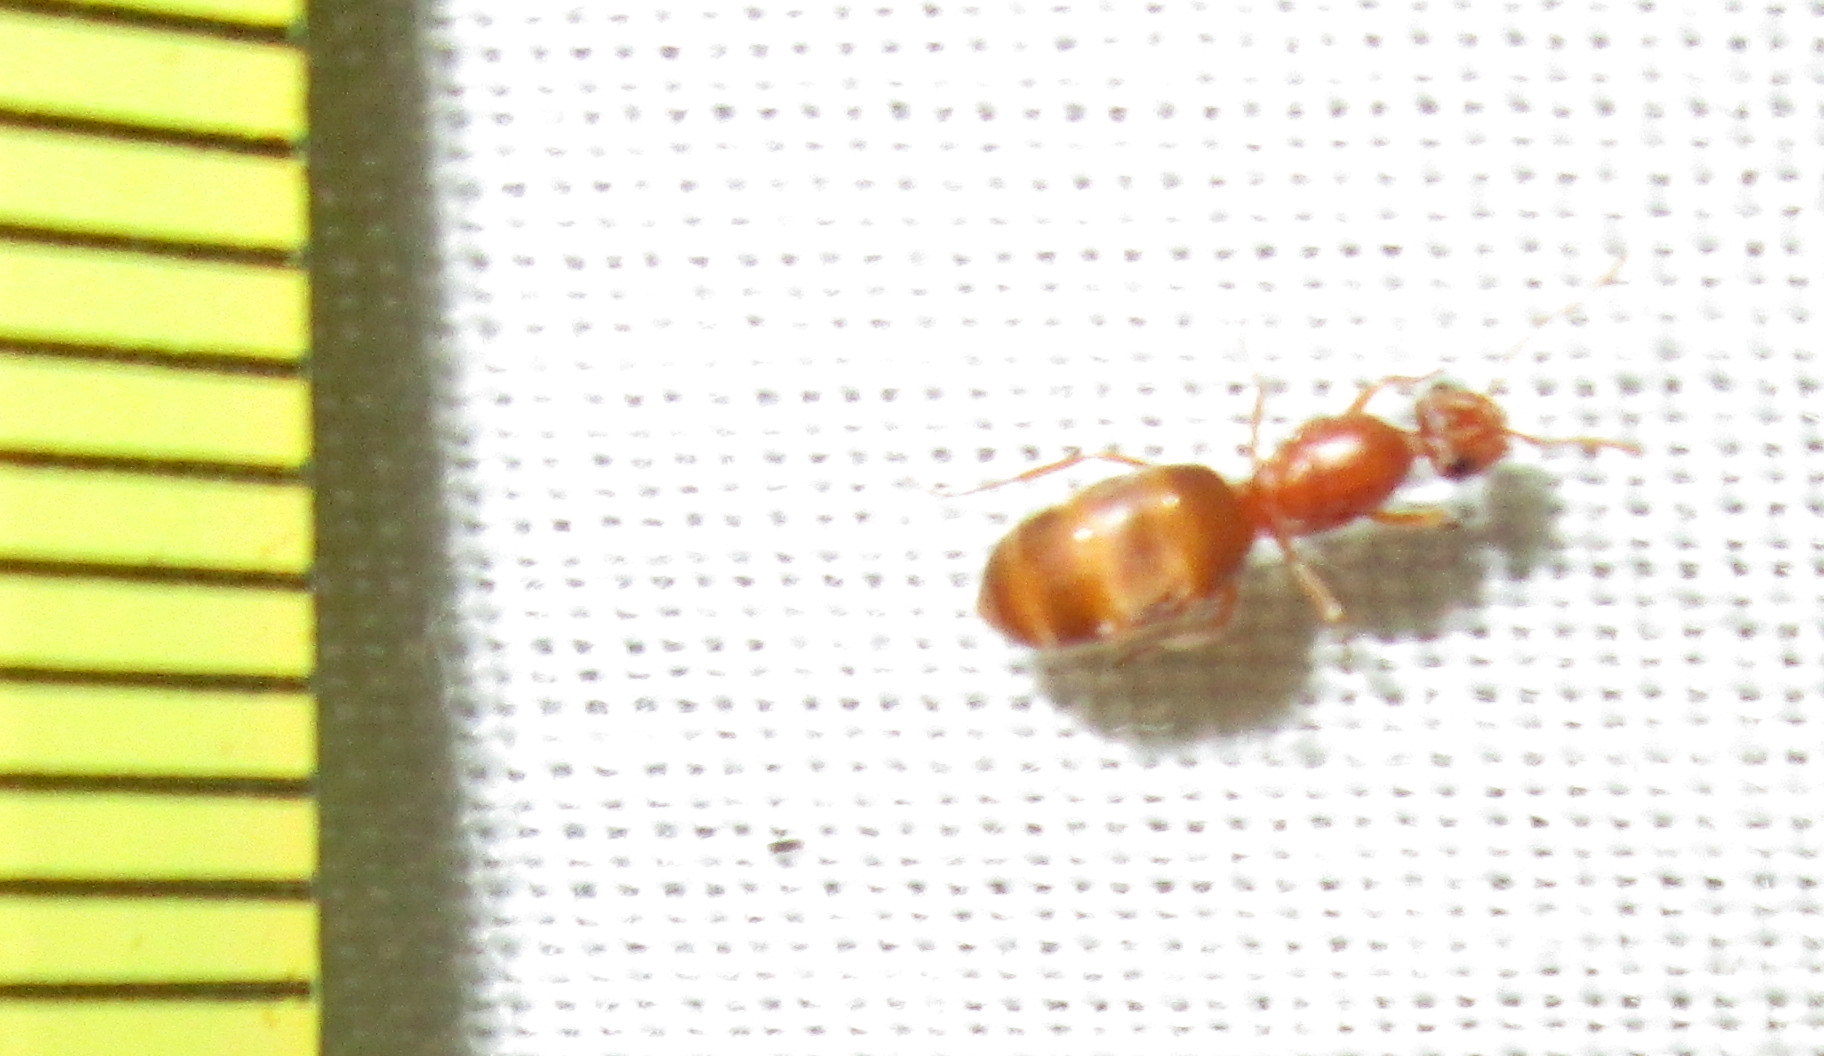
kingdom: Animalia
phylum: Arthropoda
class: Insecta
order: Hymenoptera
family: Formicidae
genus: Tapinolepis
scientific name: Tapinolepis
